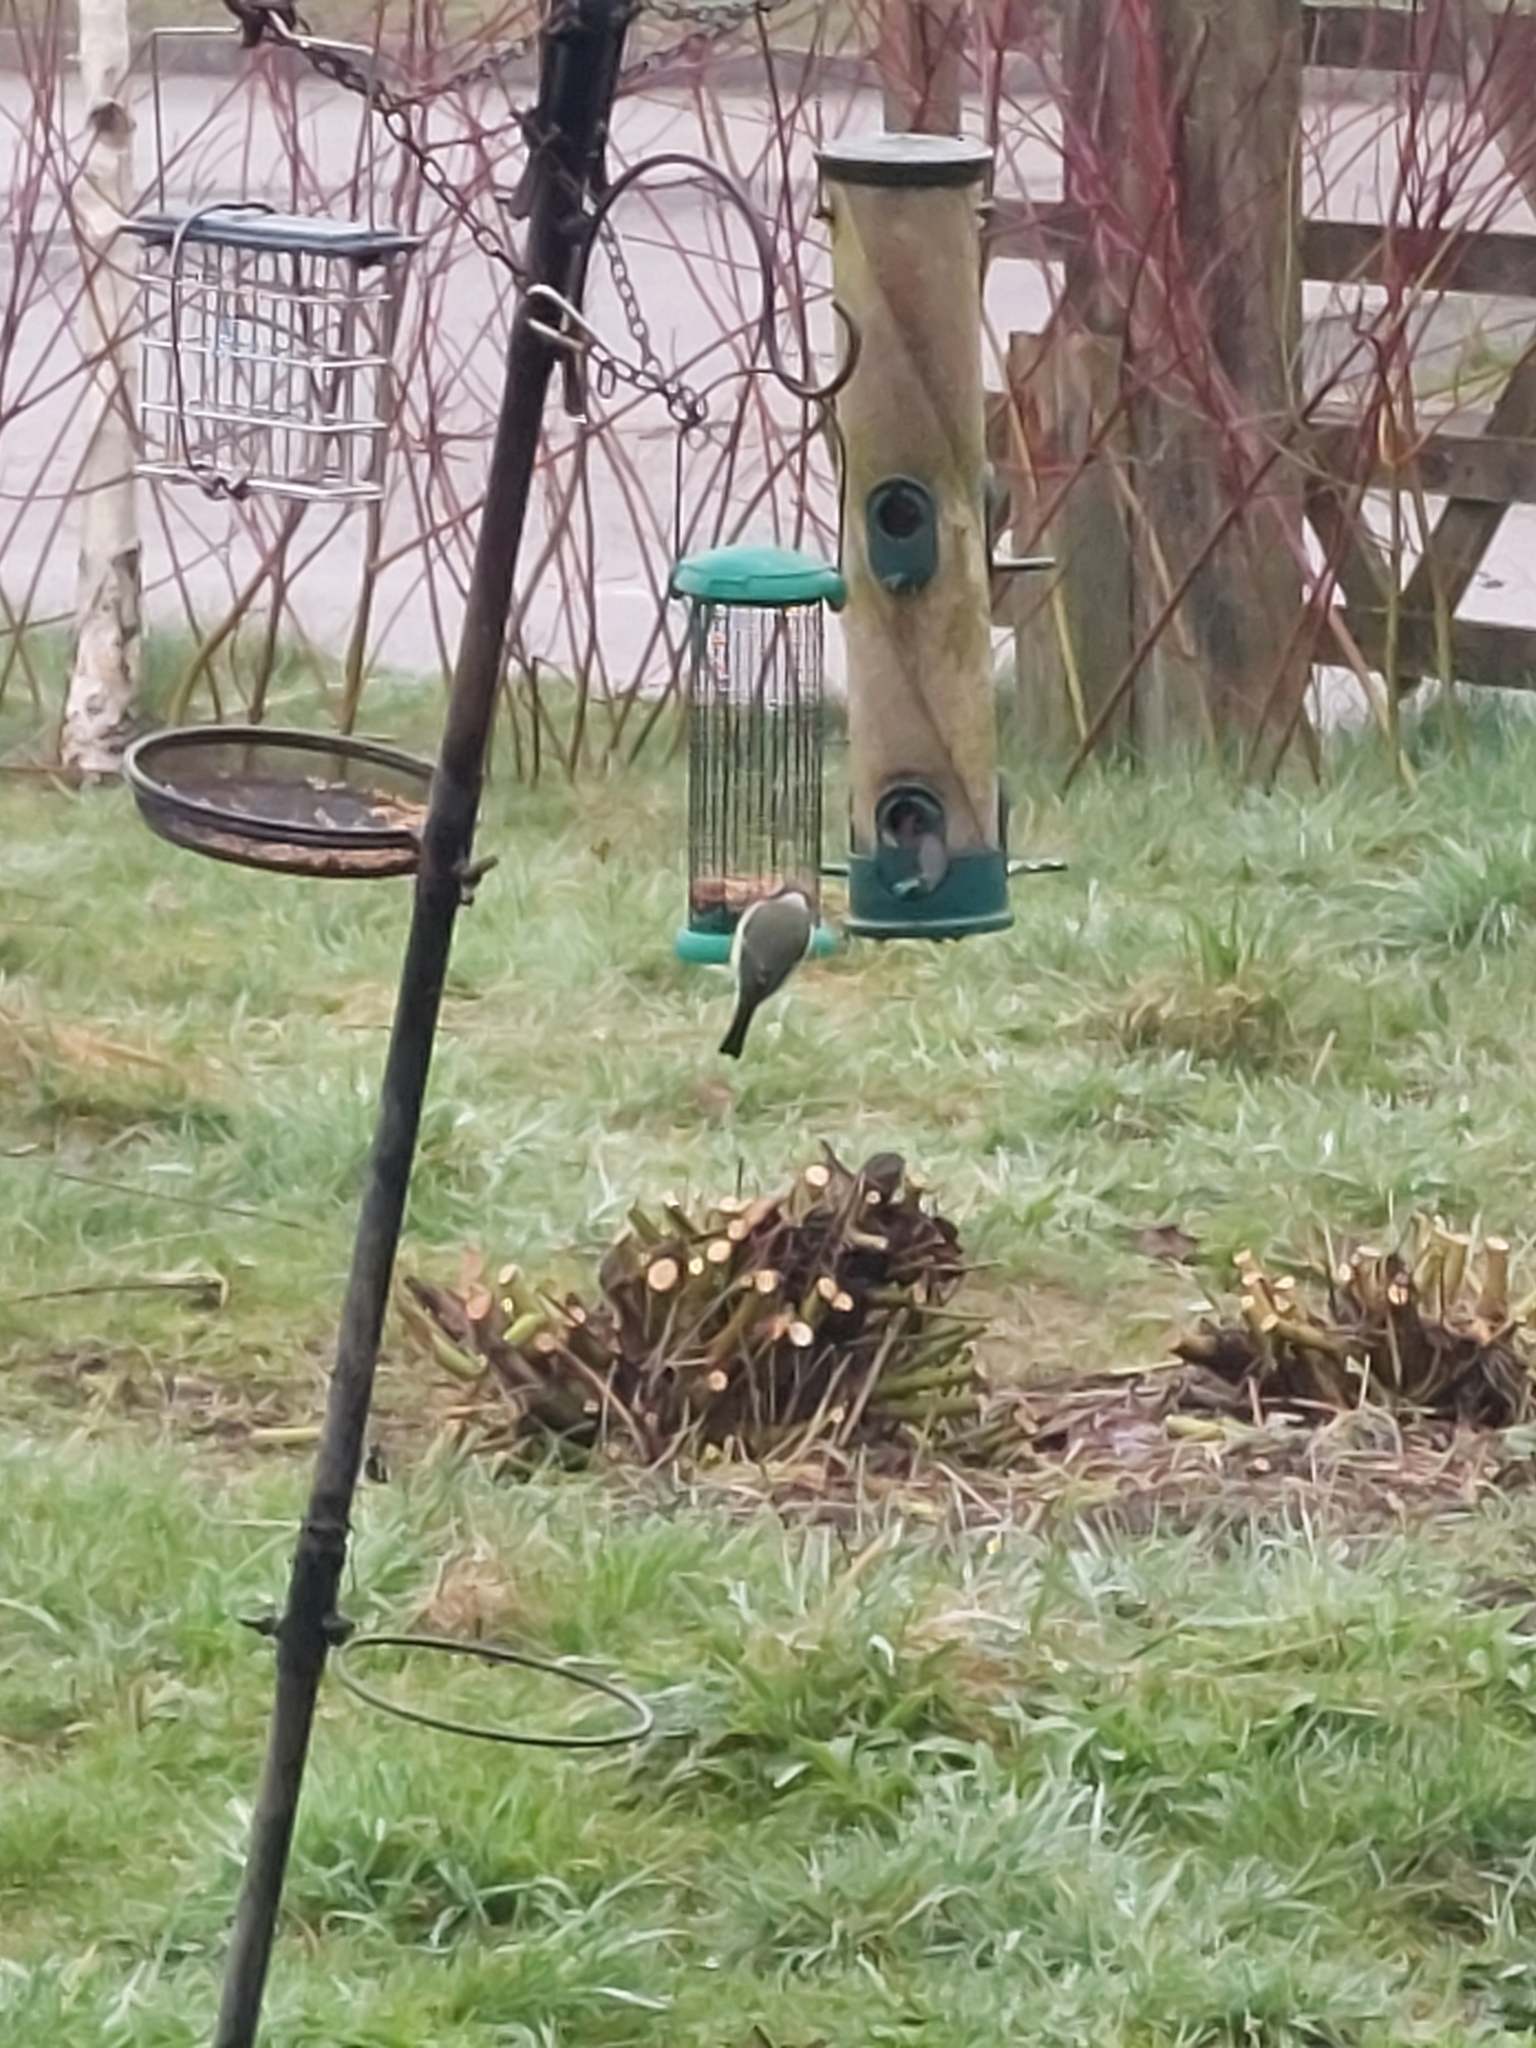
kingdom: Animalia
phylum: Chordata
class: Aves
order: Passeriformes
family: Paridae
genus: Parus
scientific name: Parus major
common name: Great tit
